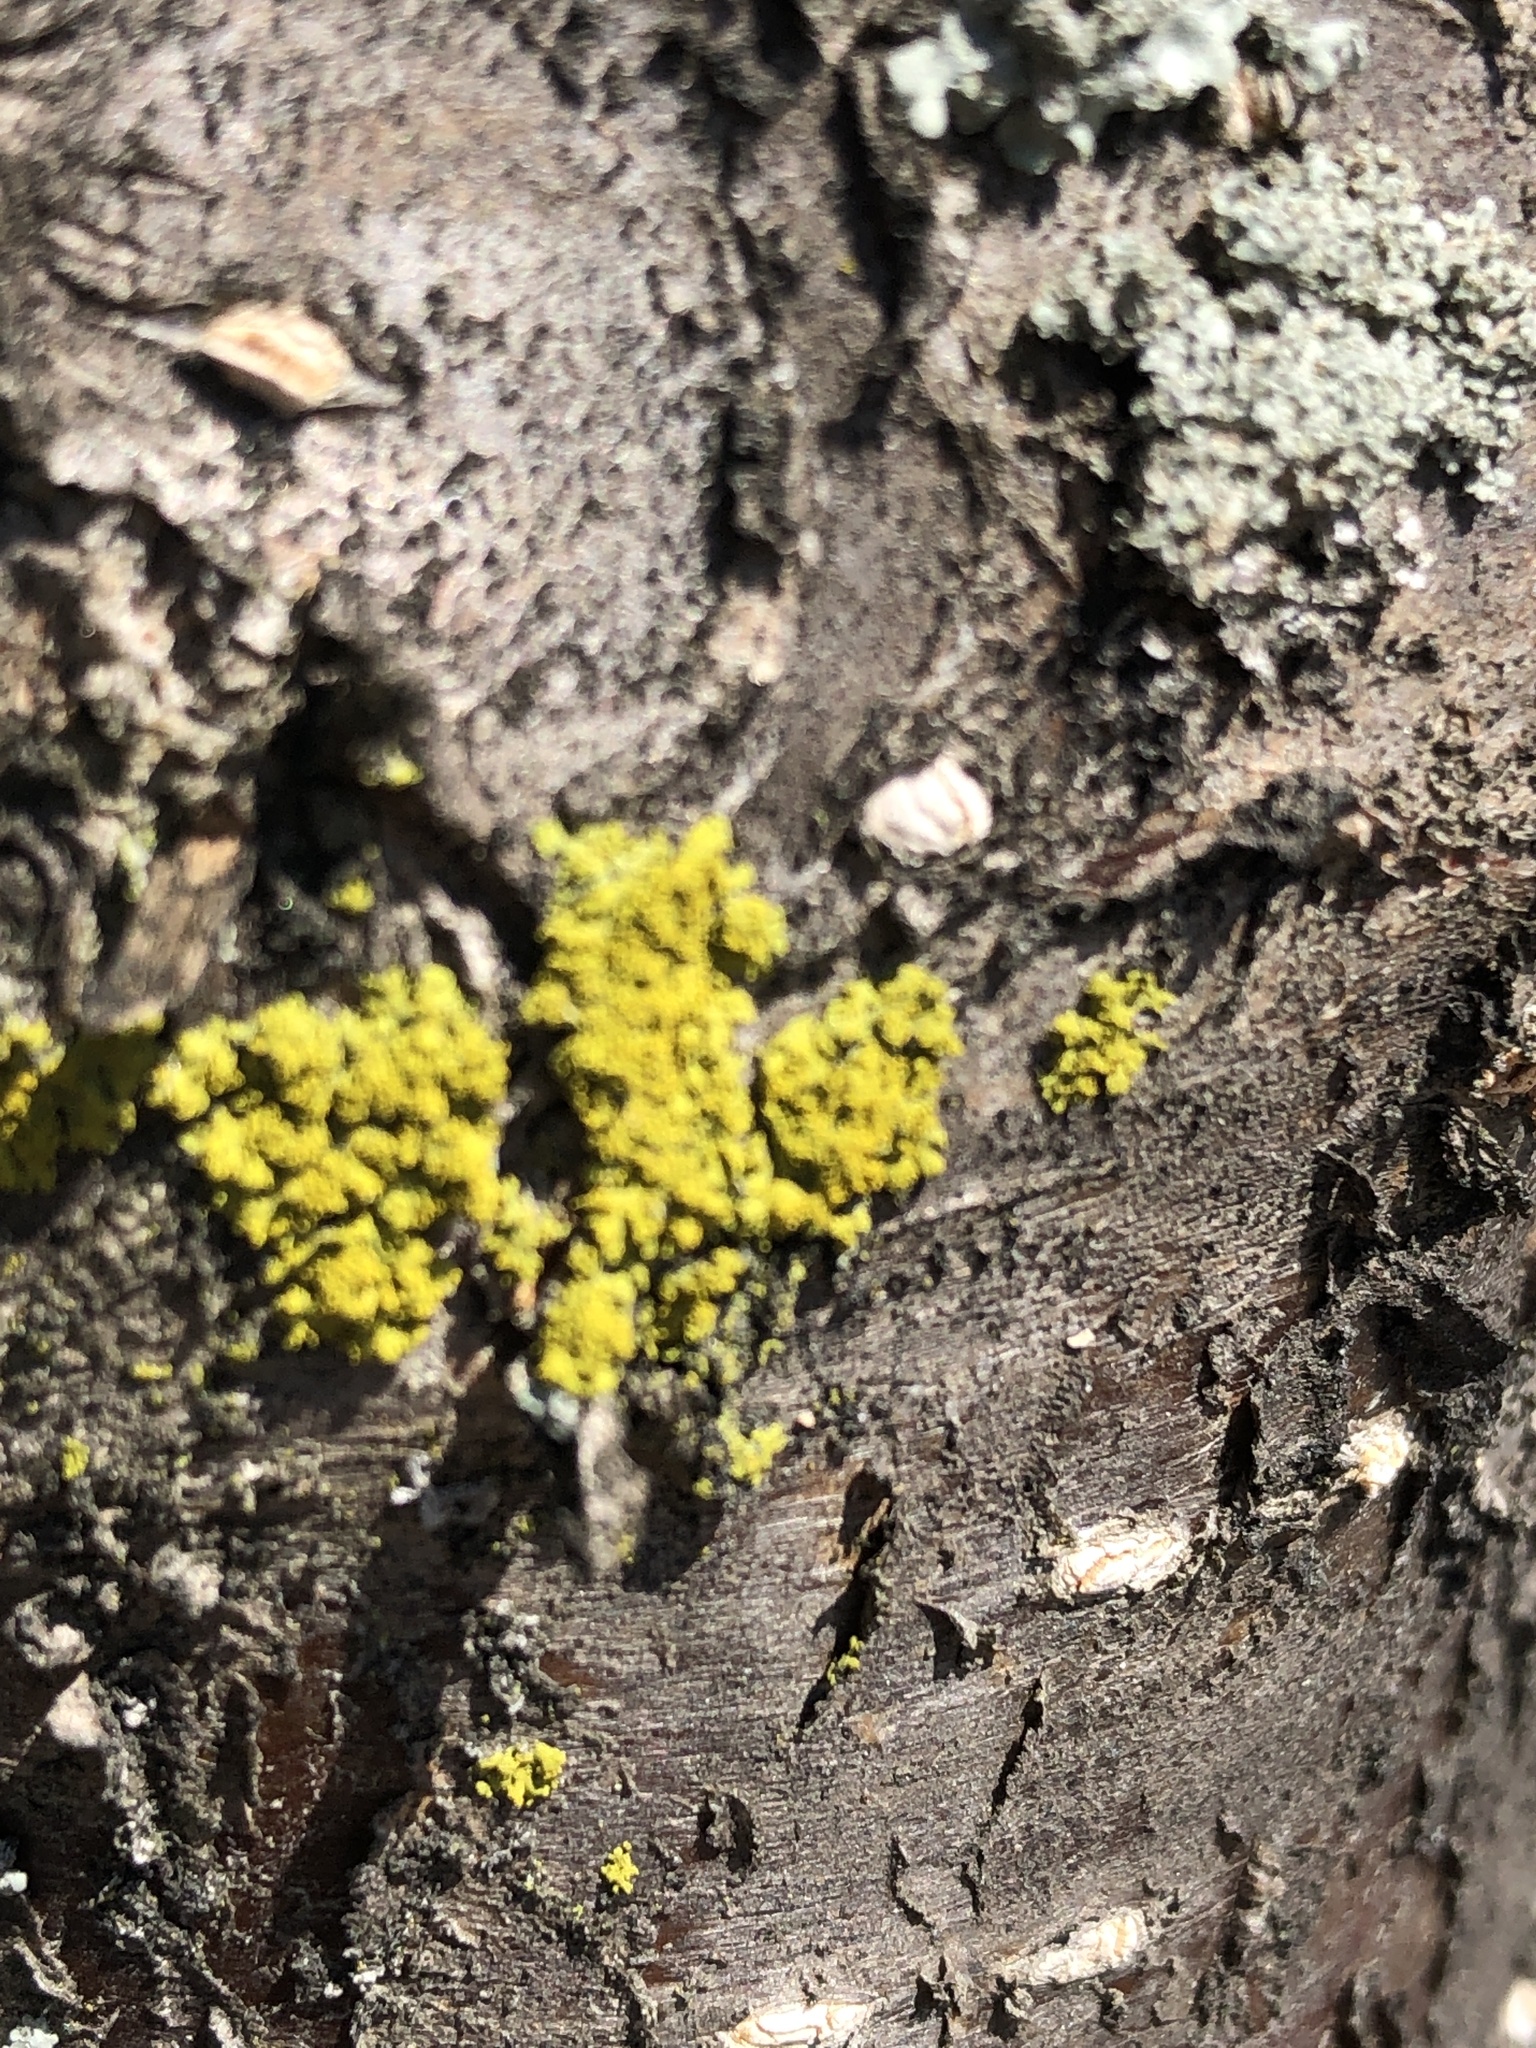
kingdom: Fungi
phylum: Ascomycota
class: Candelariomycetes
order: Candelariales
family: Candelariaceae
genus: Candelaria
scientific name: Candelaria concolor
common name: Candleflame lichen
